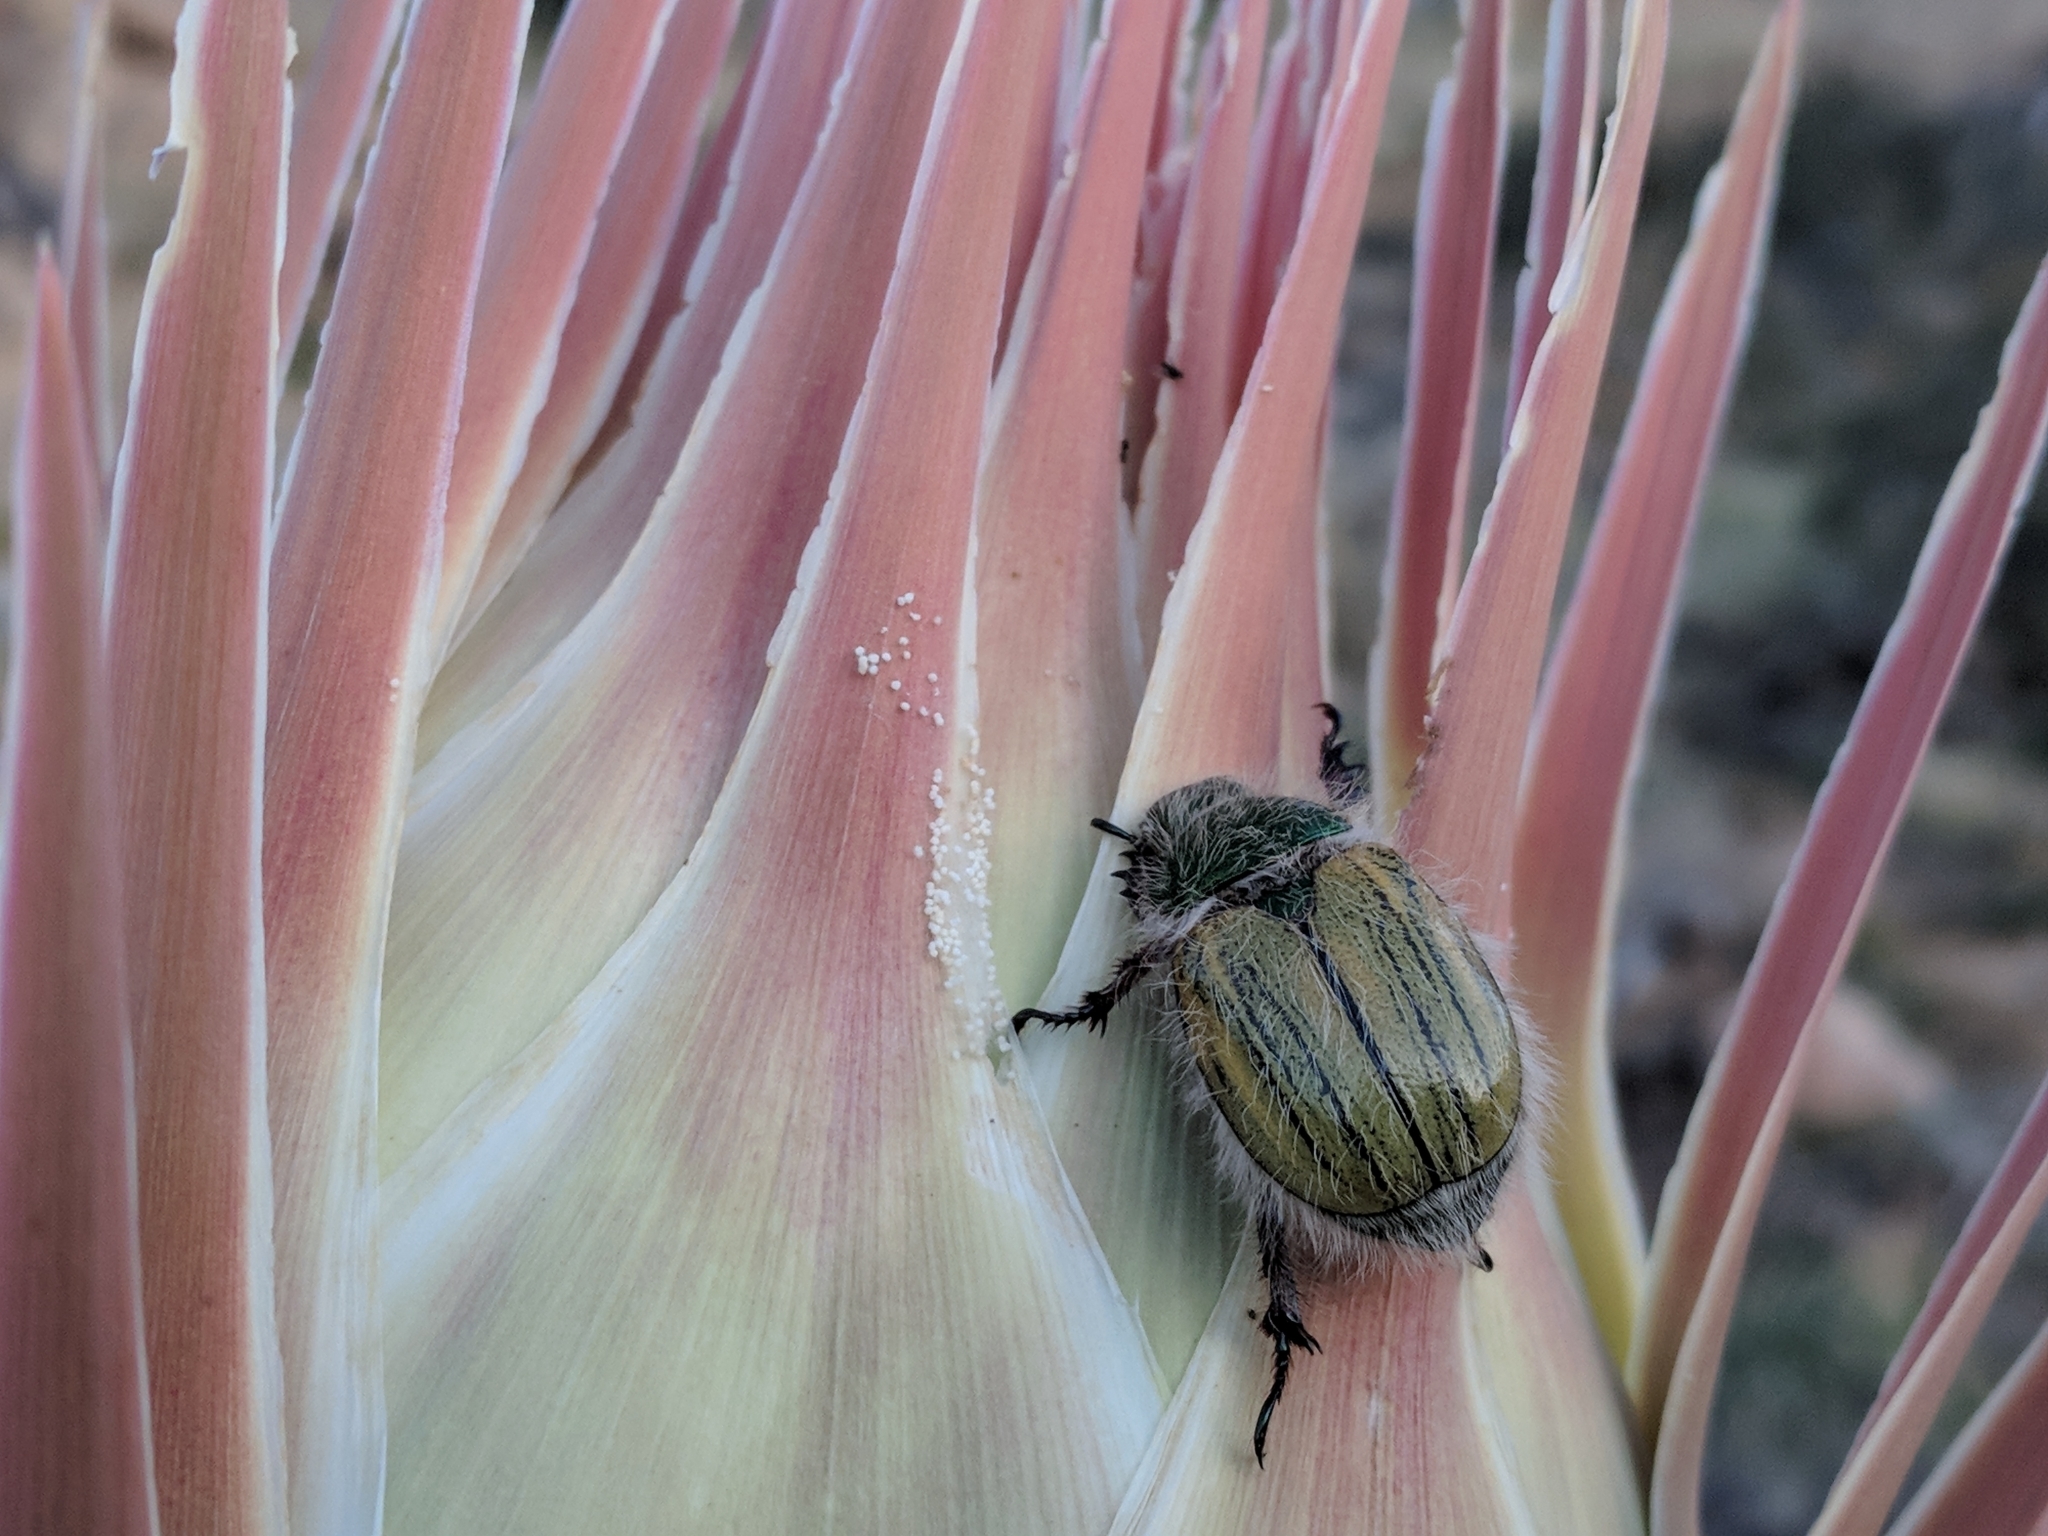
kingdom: Animalia
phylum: Arthropoda
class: Insecta
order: Coleoptera
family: Scarabaeidae
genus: Paracotalpa
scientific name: Paracotalpa puncticollis
